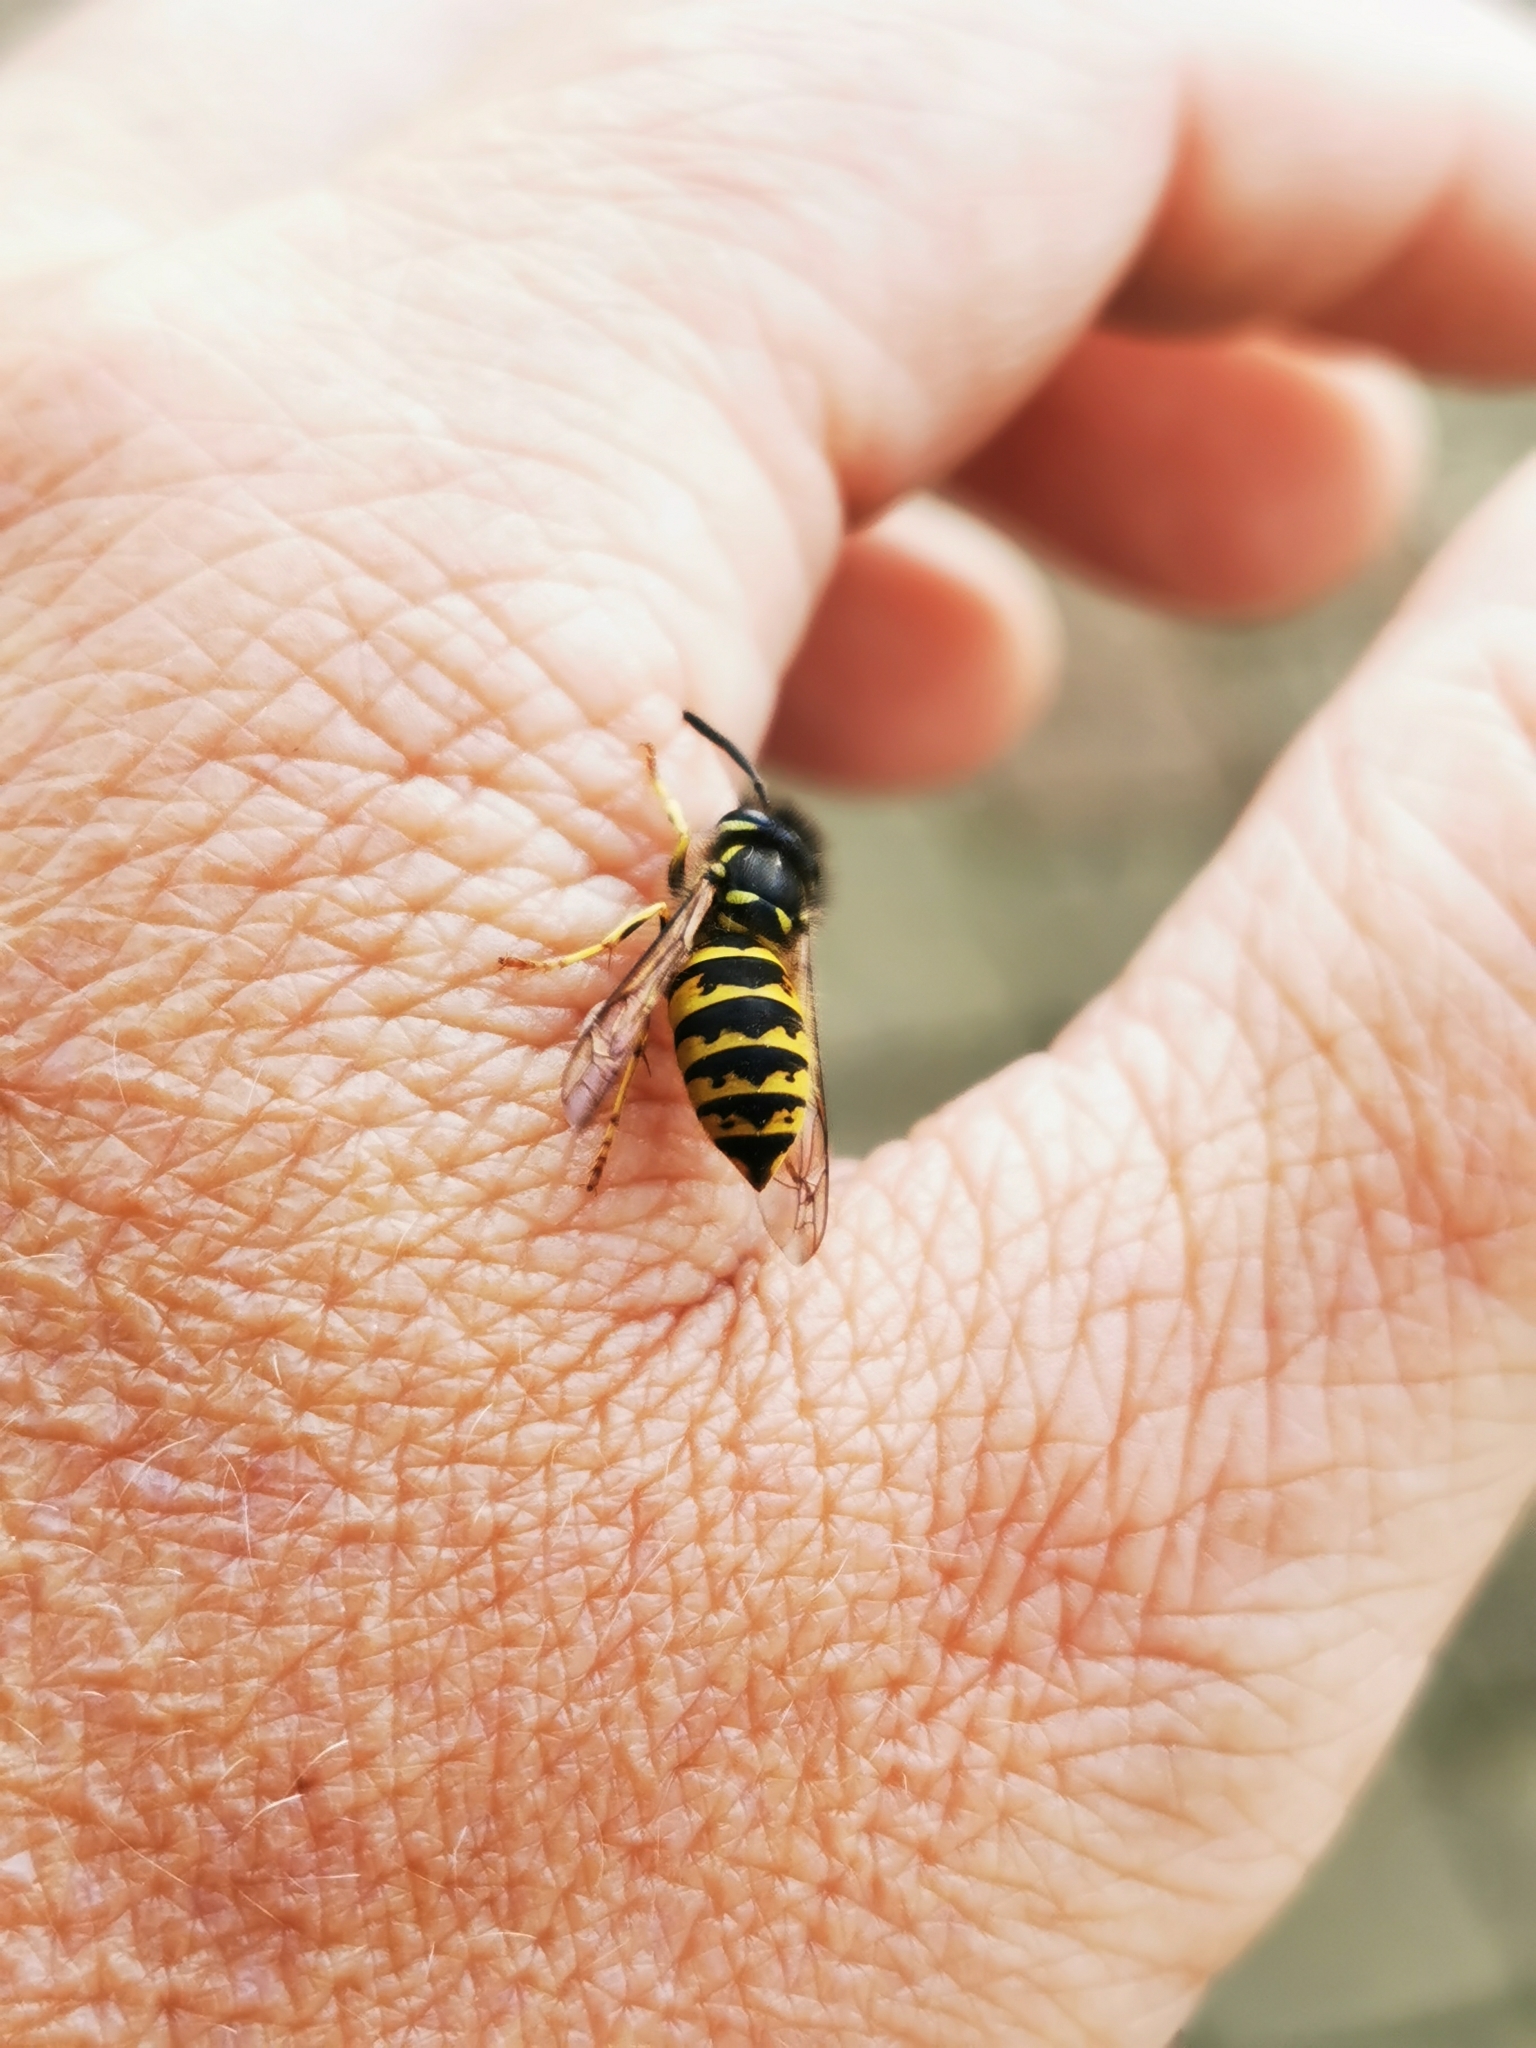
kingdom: Animalia
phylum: Arthropoda
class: Insecta
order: Hymenoptera
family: Vespidae
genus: Vespula
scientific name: Vespula vulgaris
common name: Common wasp
